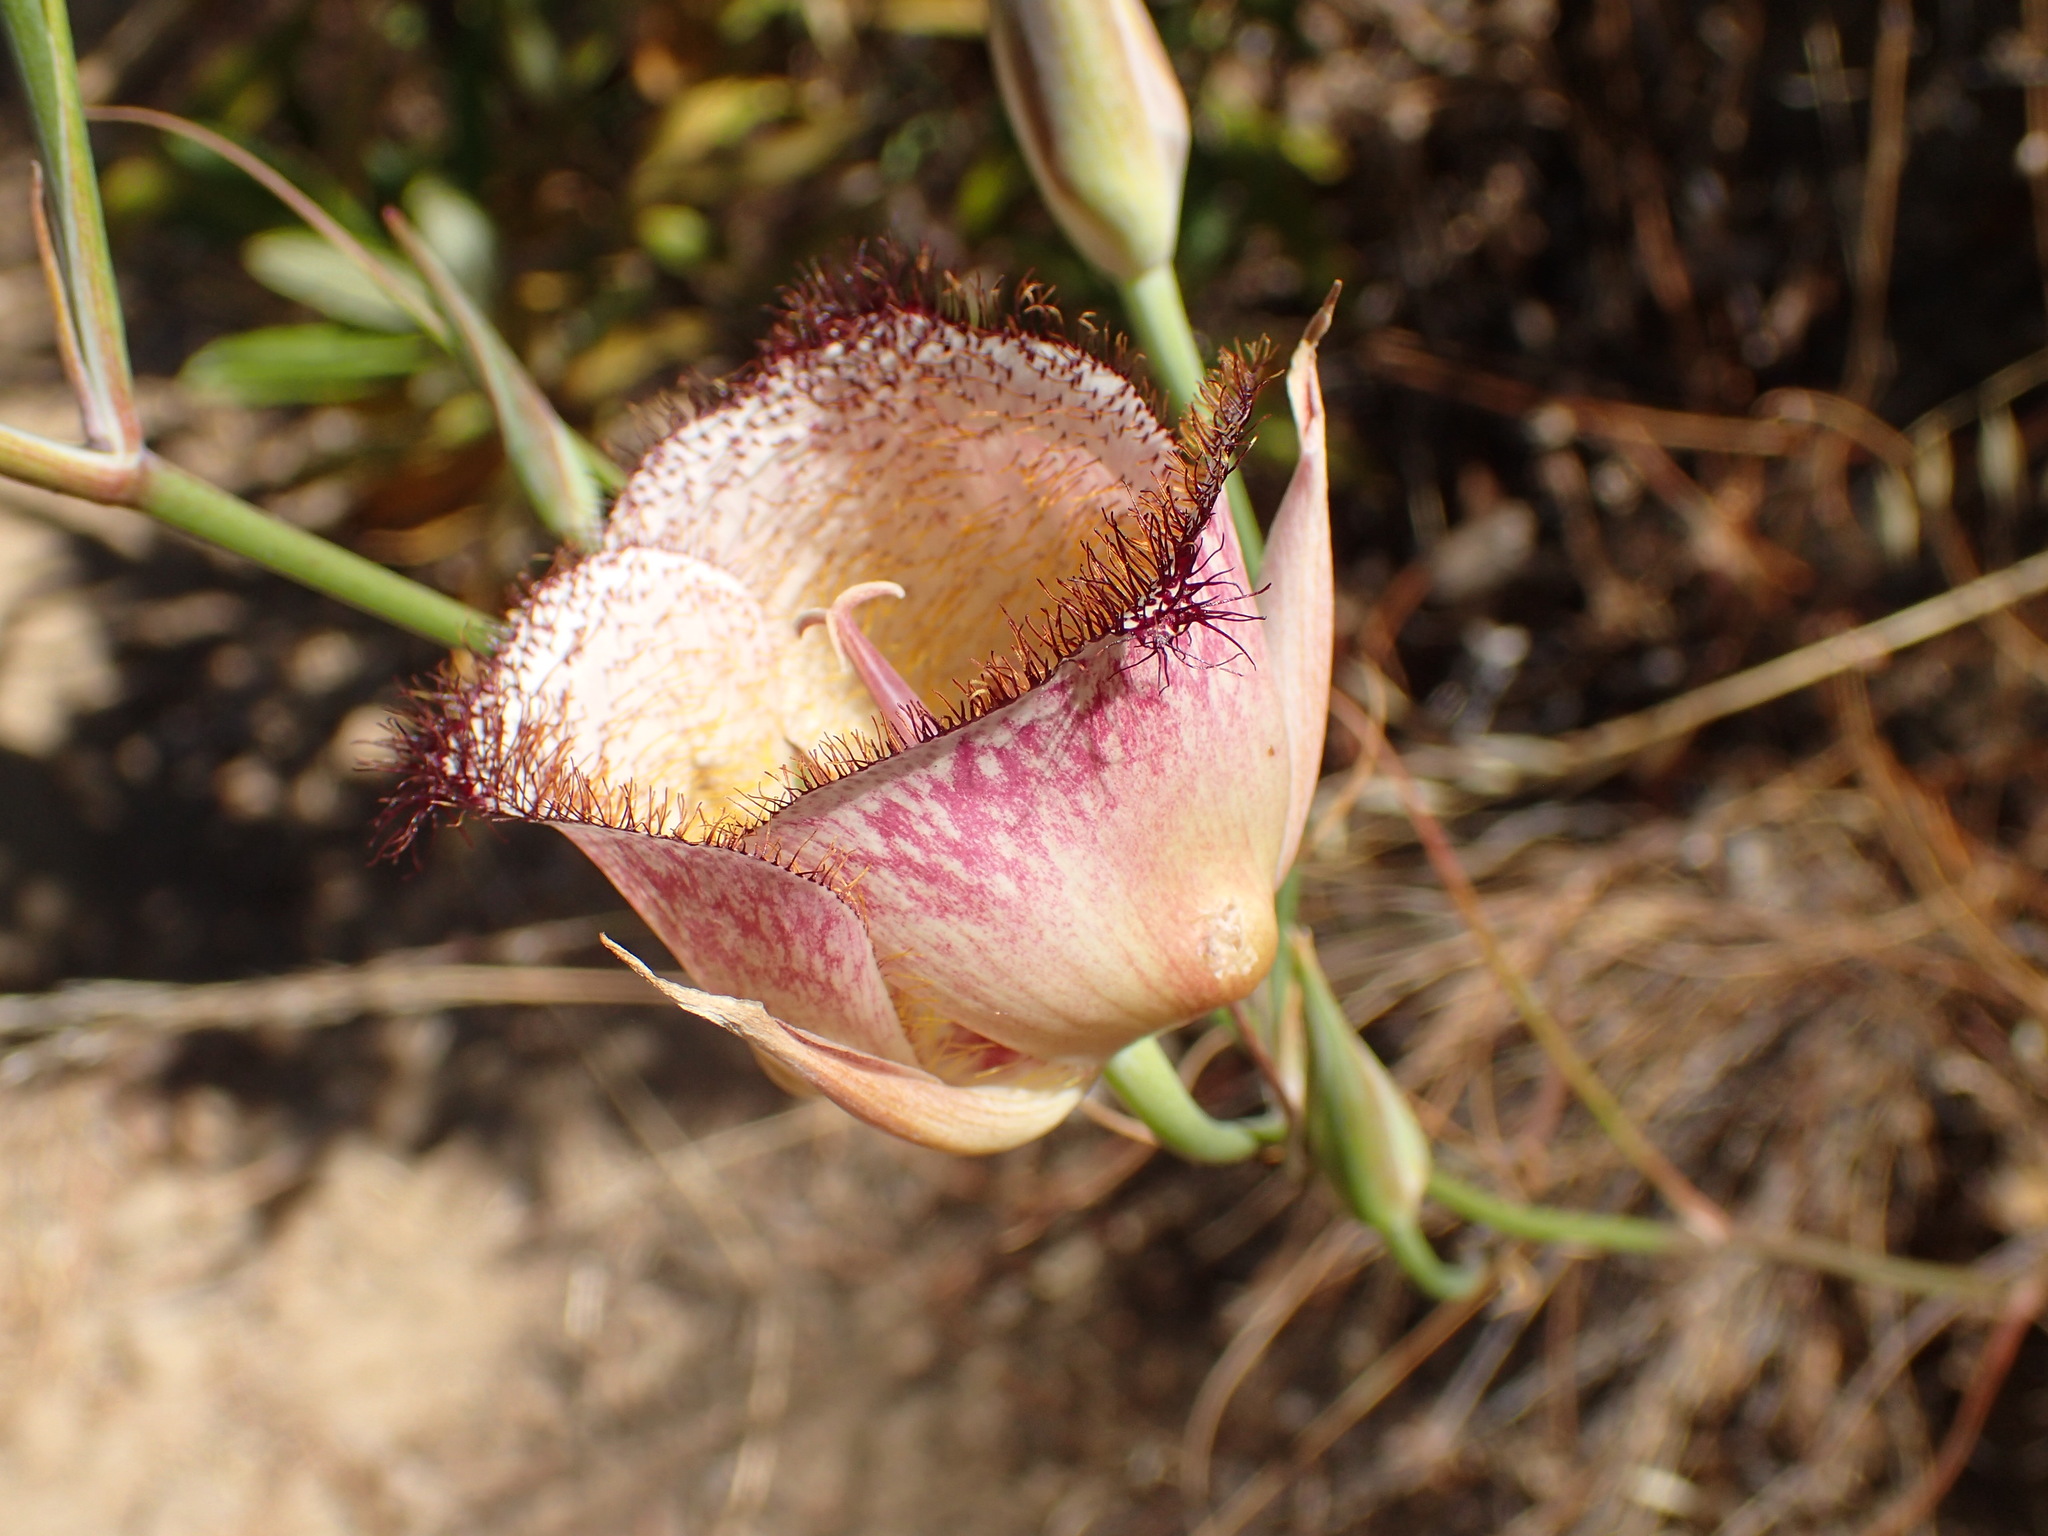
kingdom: Plantae
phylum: Tracheophyta
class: Liliopsida
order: Liliales
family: Liliaceae
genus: Calochortus
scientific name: Calochortus fimbriatus
